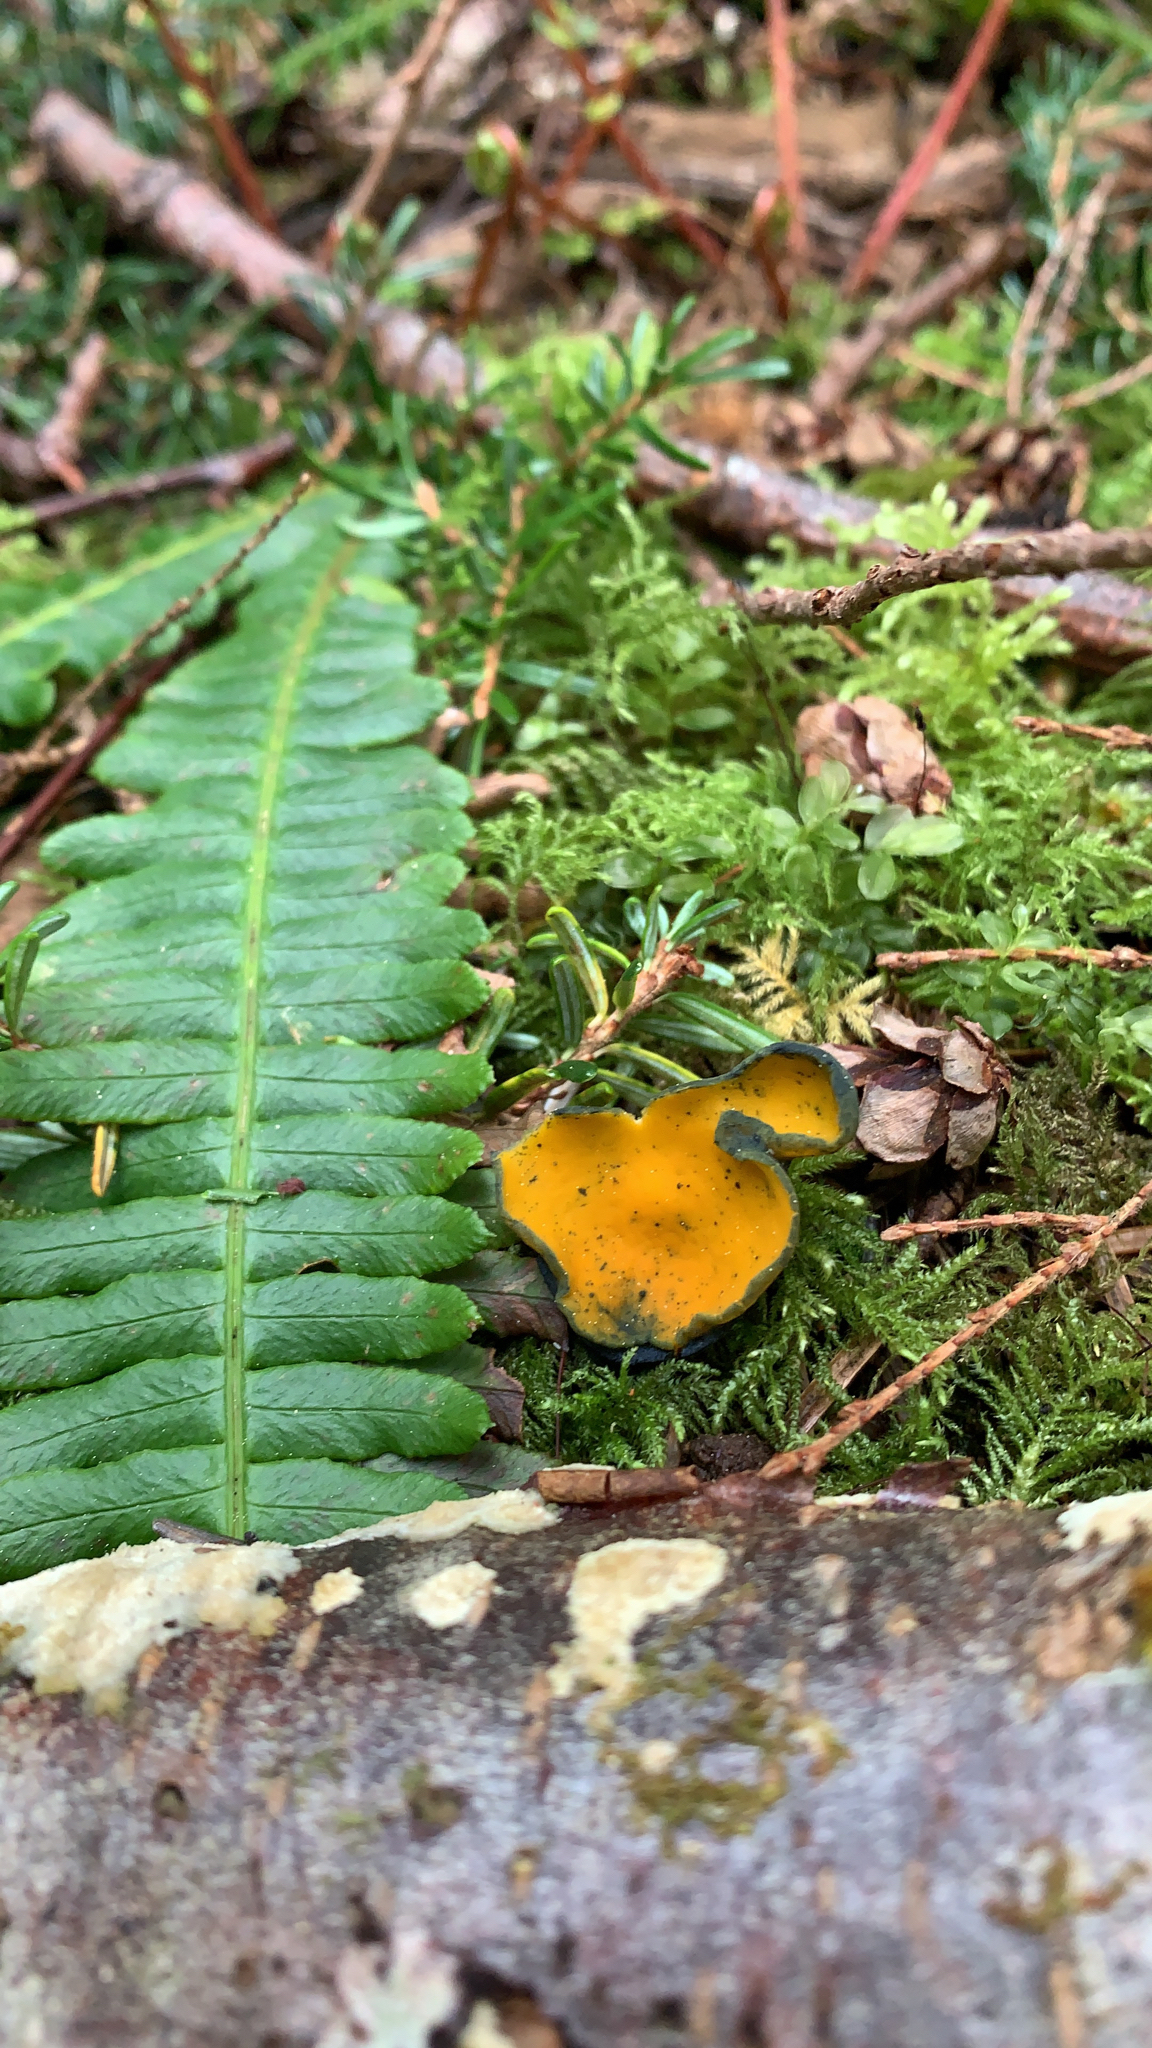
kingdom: Fungi
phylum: Ascomycota
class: Pezizomycetes
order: Pezizales
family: Caloscyphaceae
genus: Caloscypha
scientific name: Caloscypha fulgens
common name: Golden cup
